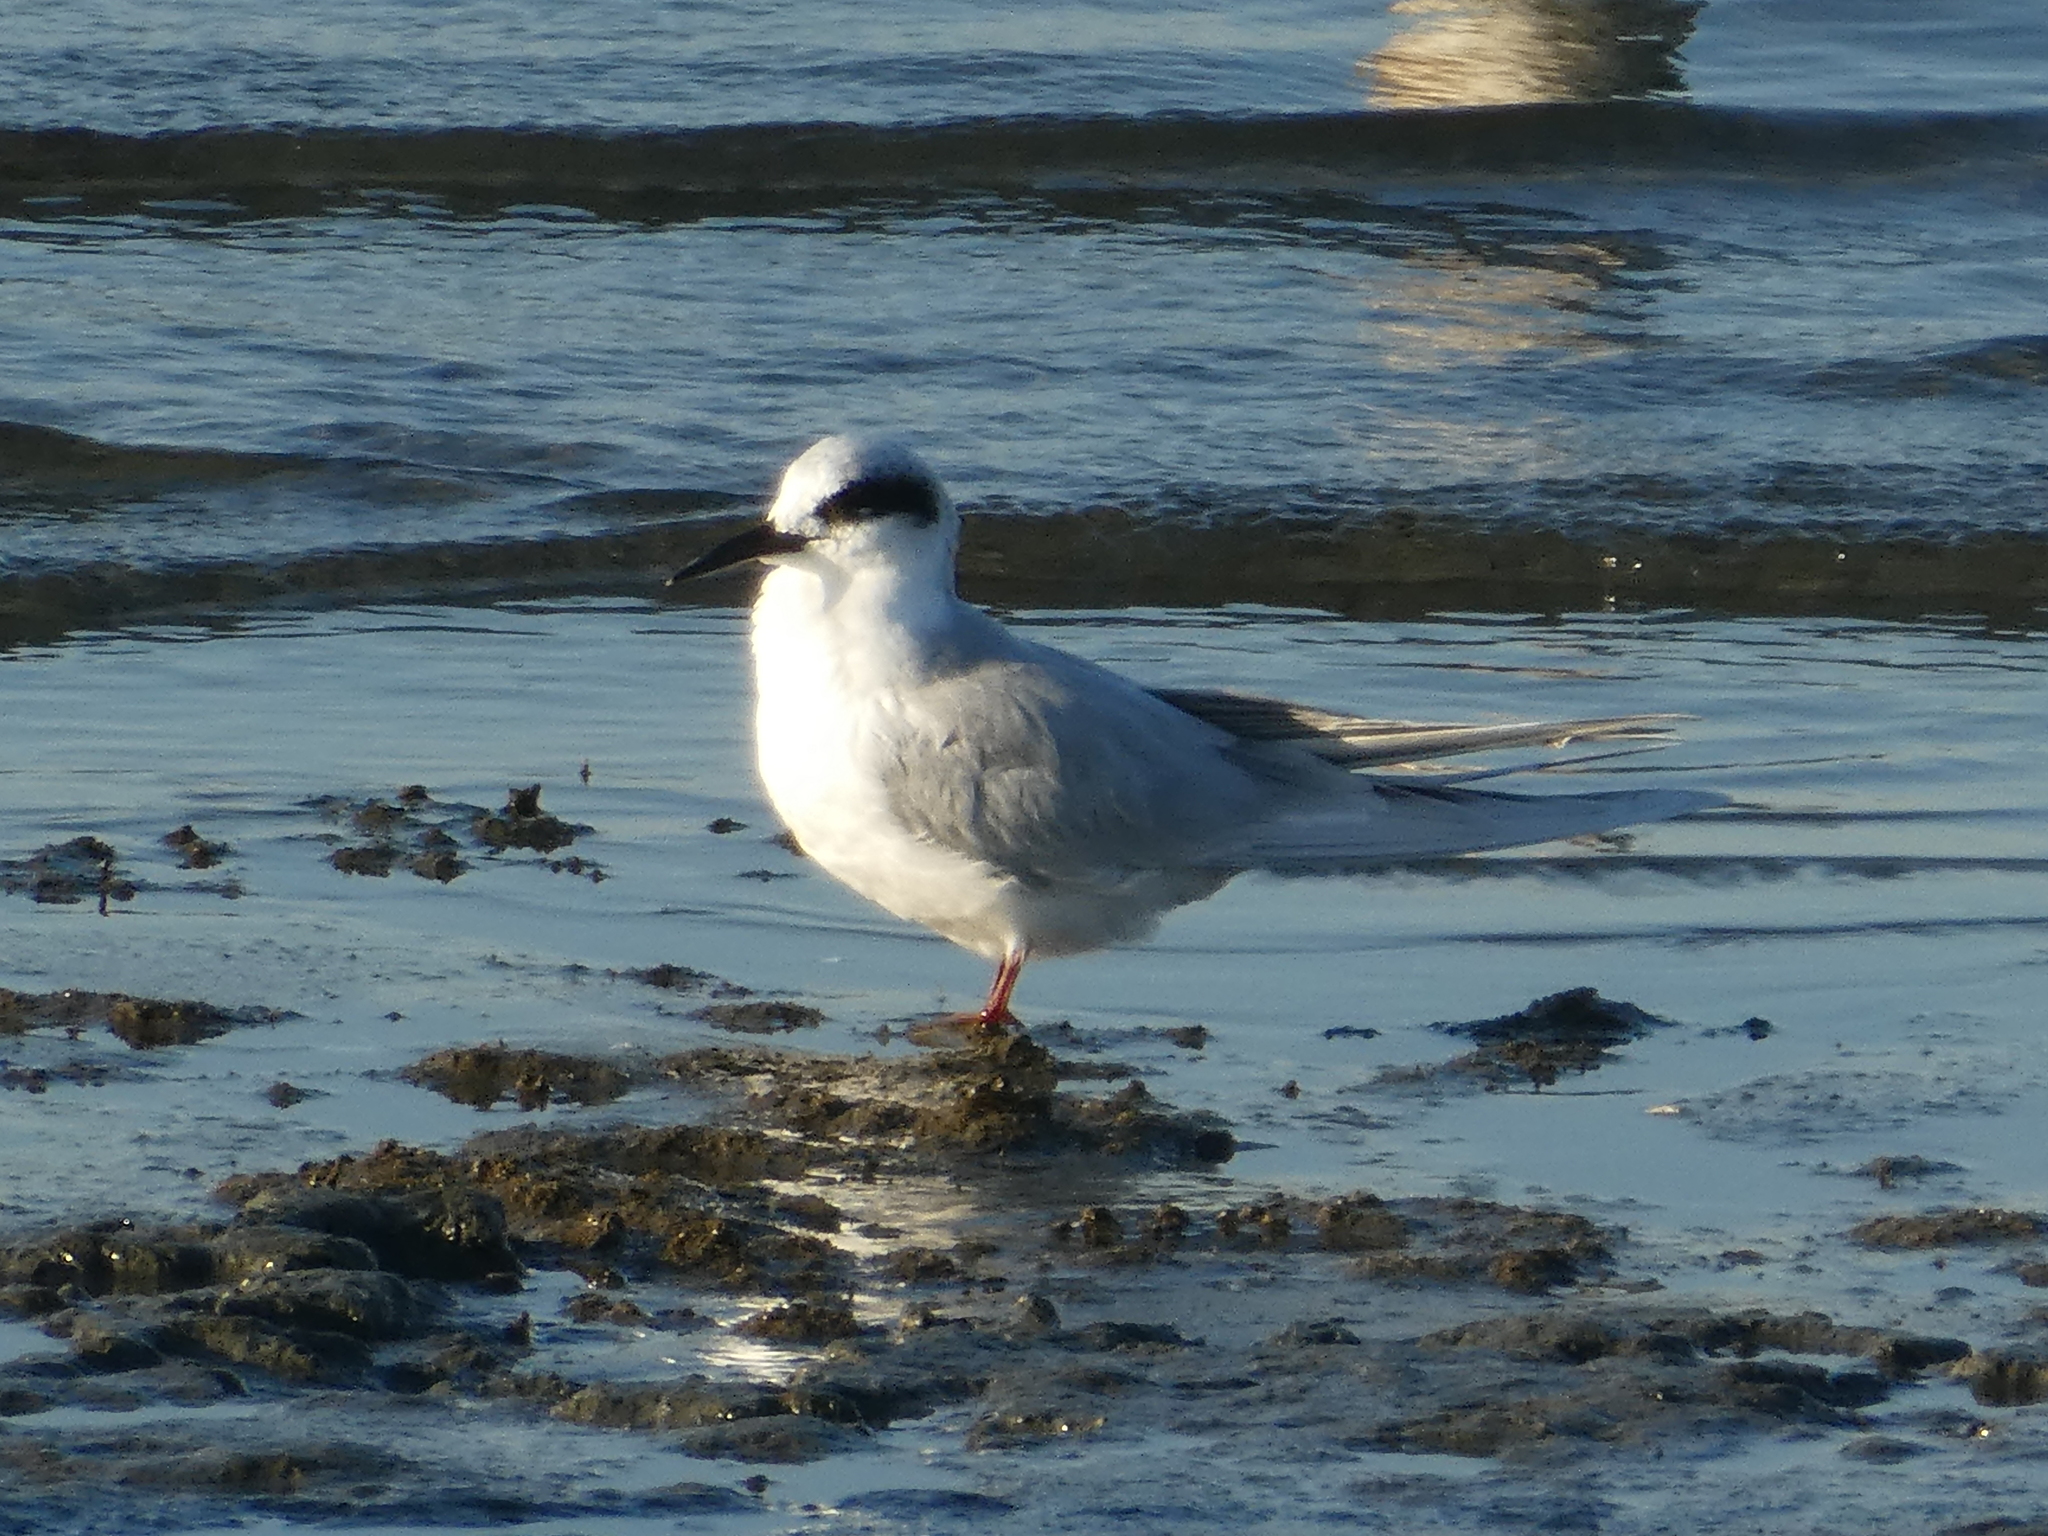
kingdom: Animalia
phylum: Chordata
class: Aves
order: Charadriiformes
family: Laridae
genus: Sterna
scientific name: Sterna forsteri
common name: Forster's tern
